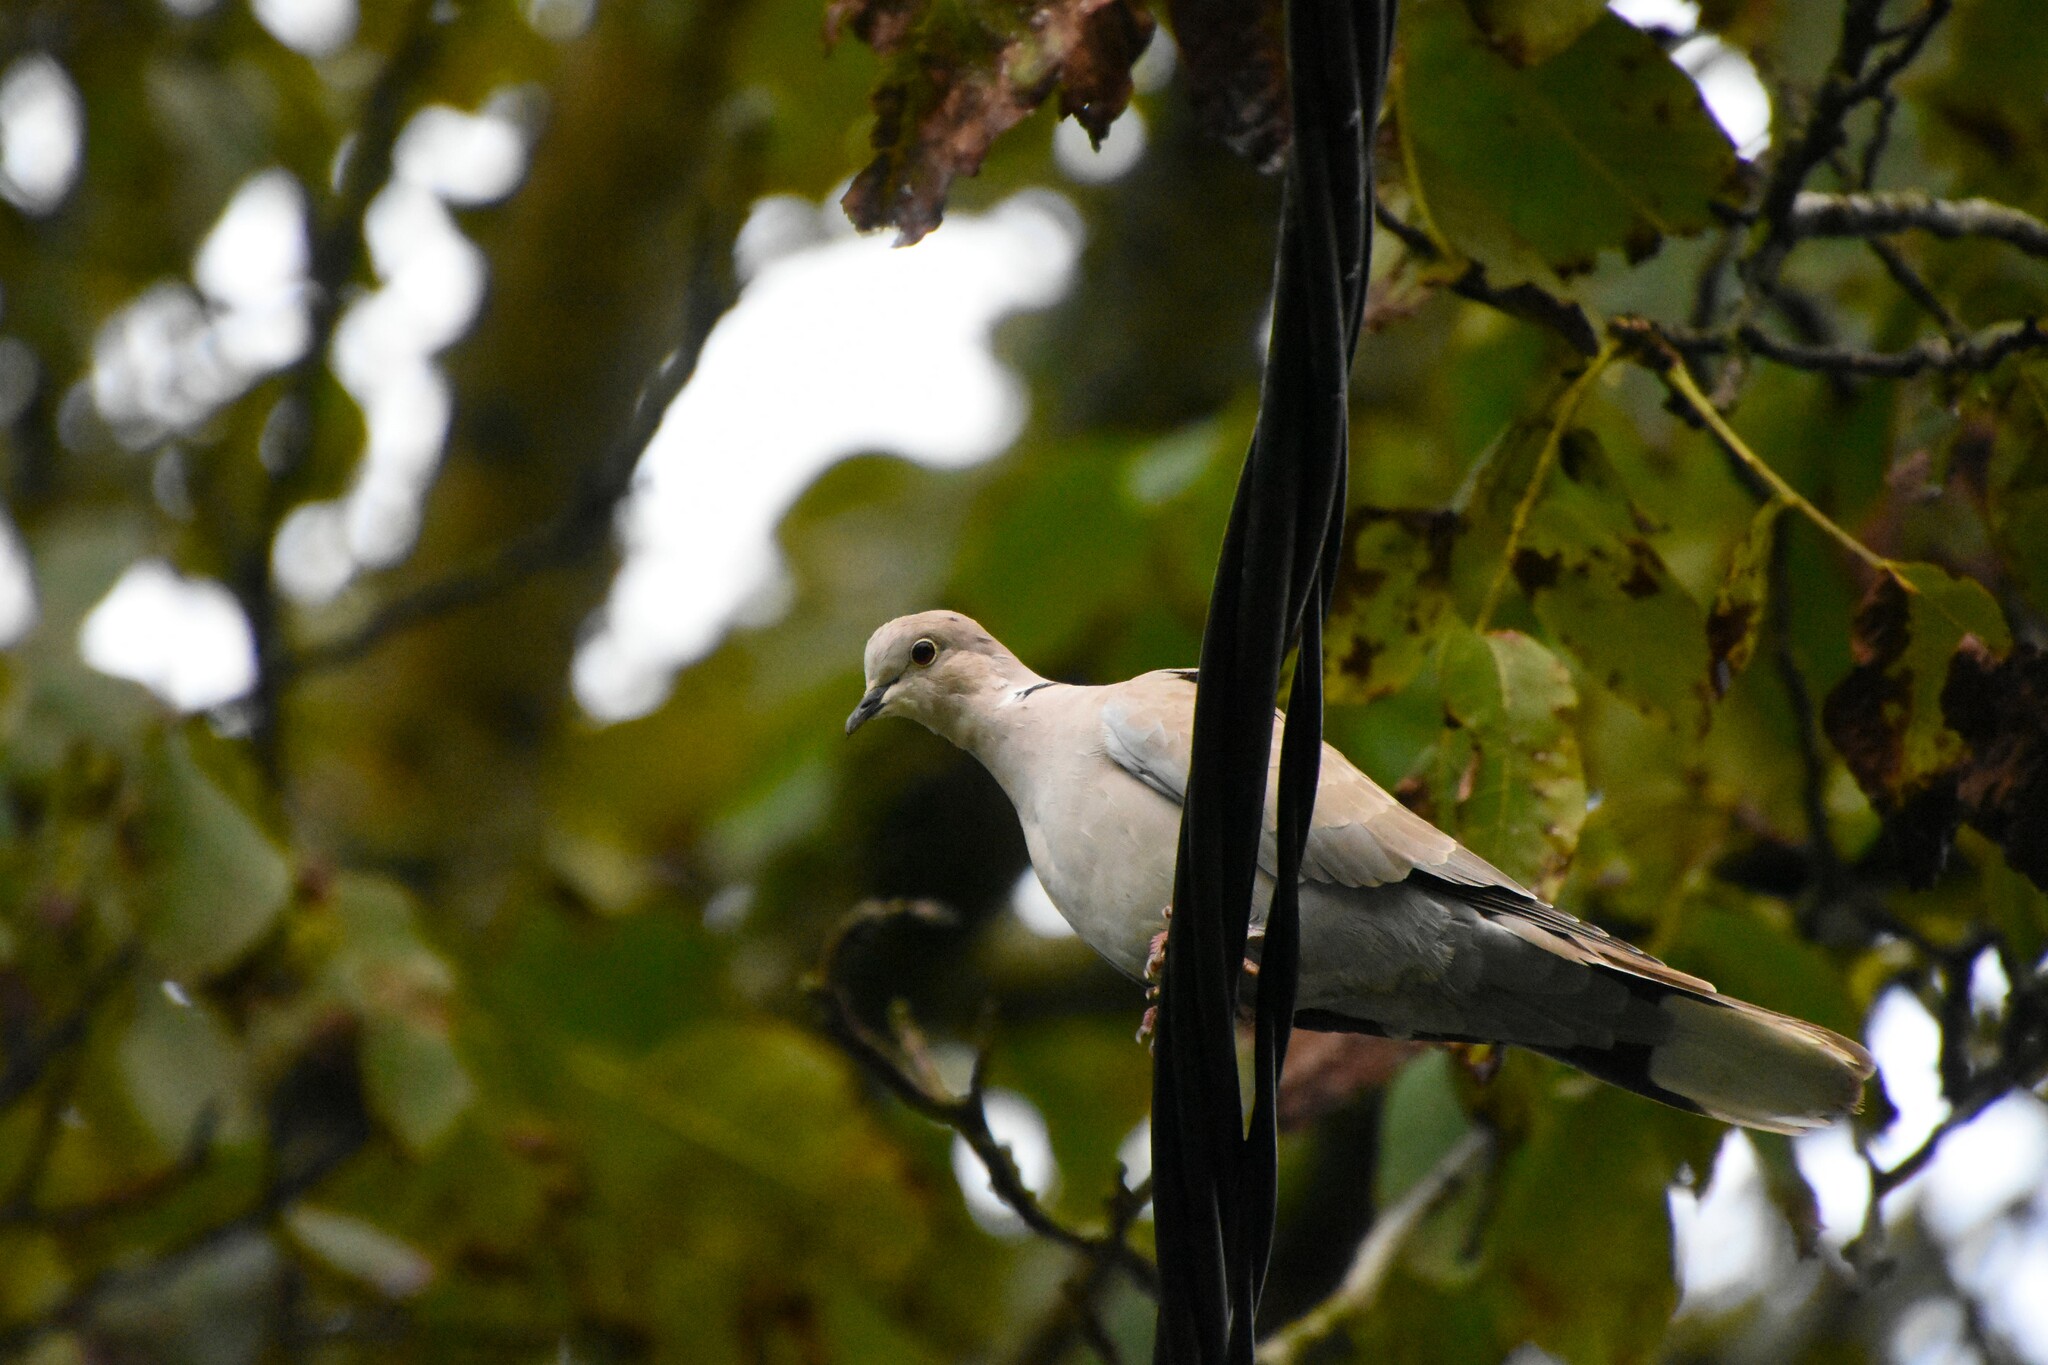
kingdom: Animalia
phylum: Chordata
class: Aves
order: Columbiformes
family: Columbidae
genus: Streptopelia
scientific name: Streptopelia decaocto
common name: Eurasian collared dove
